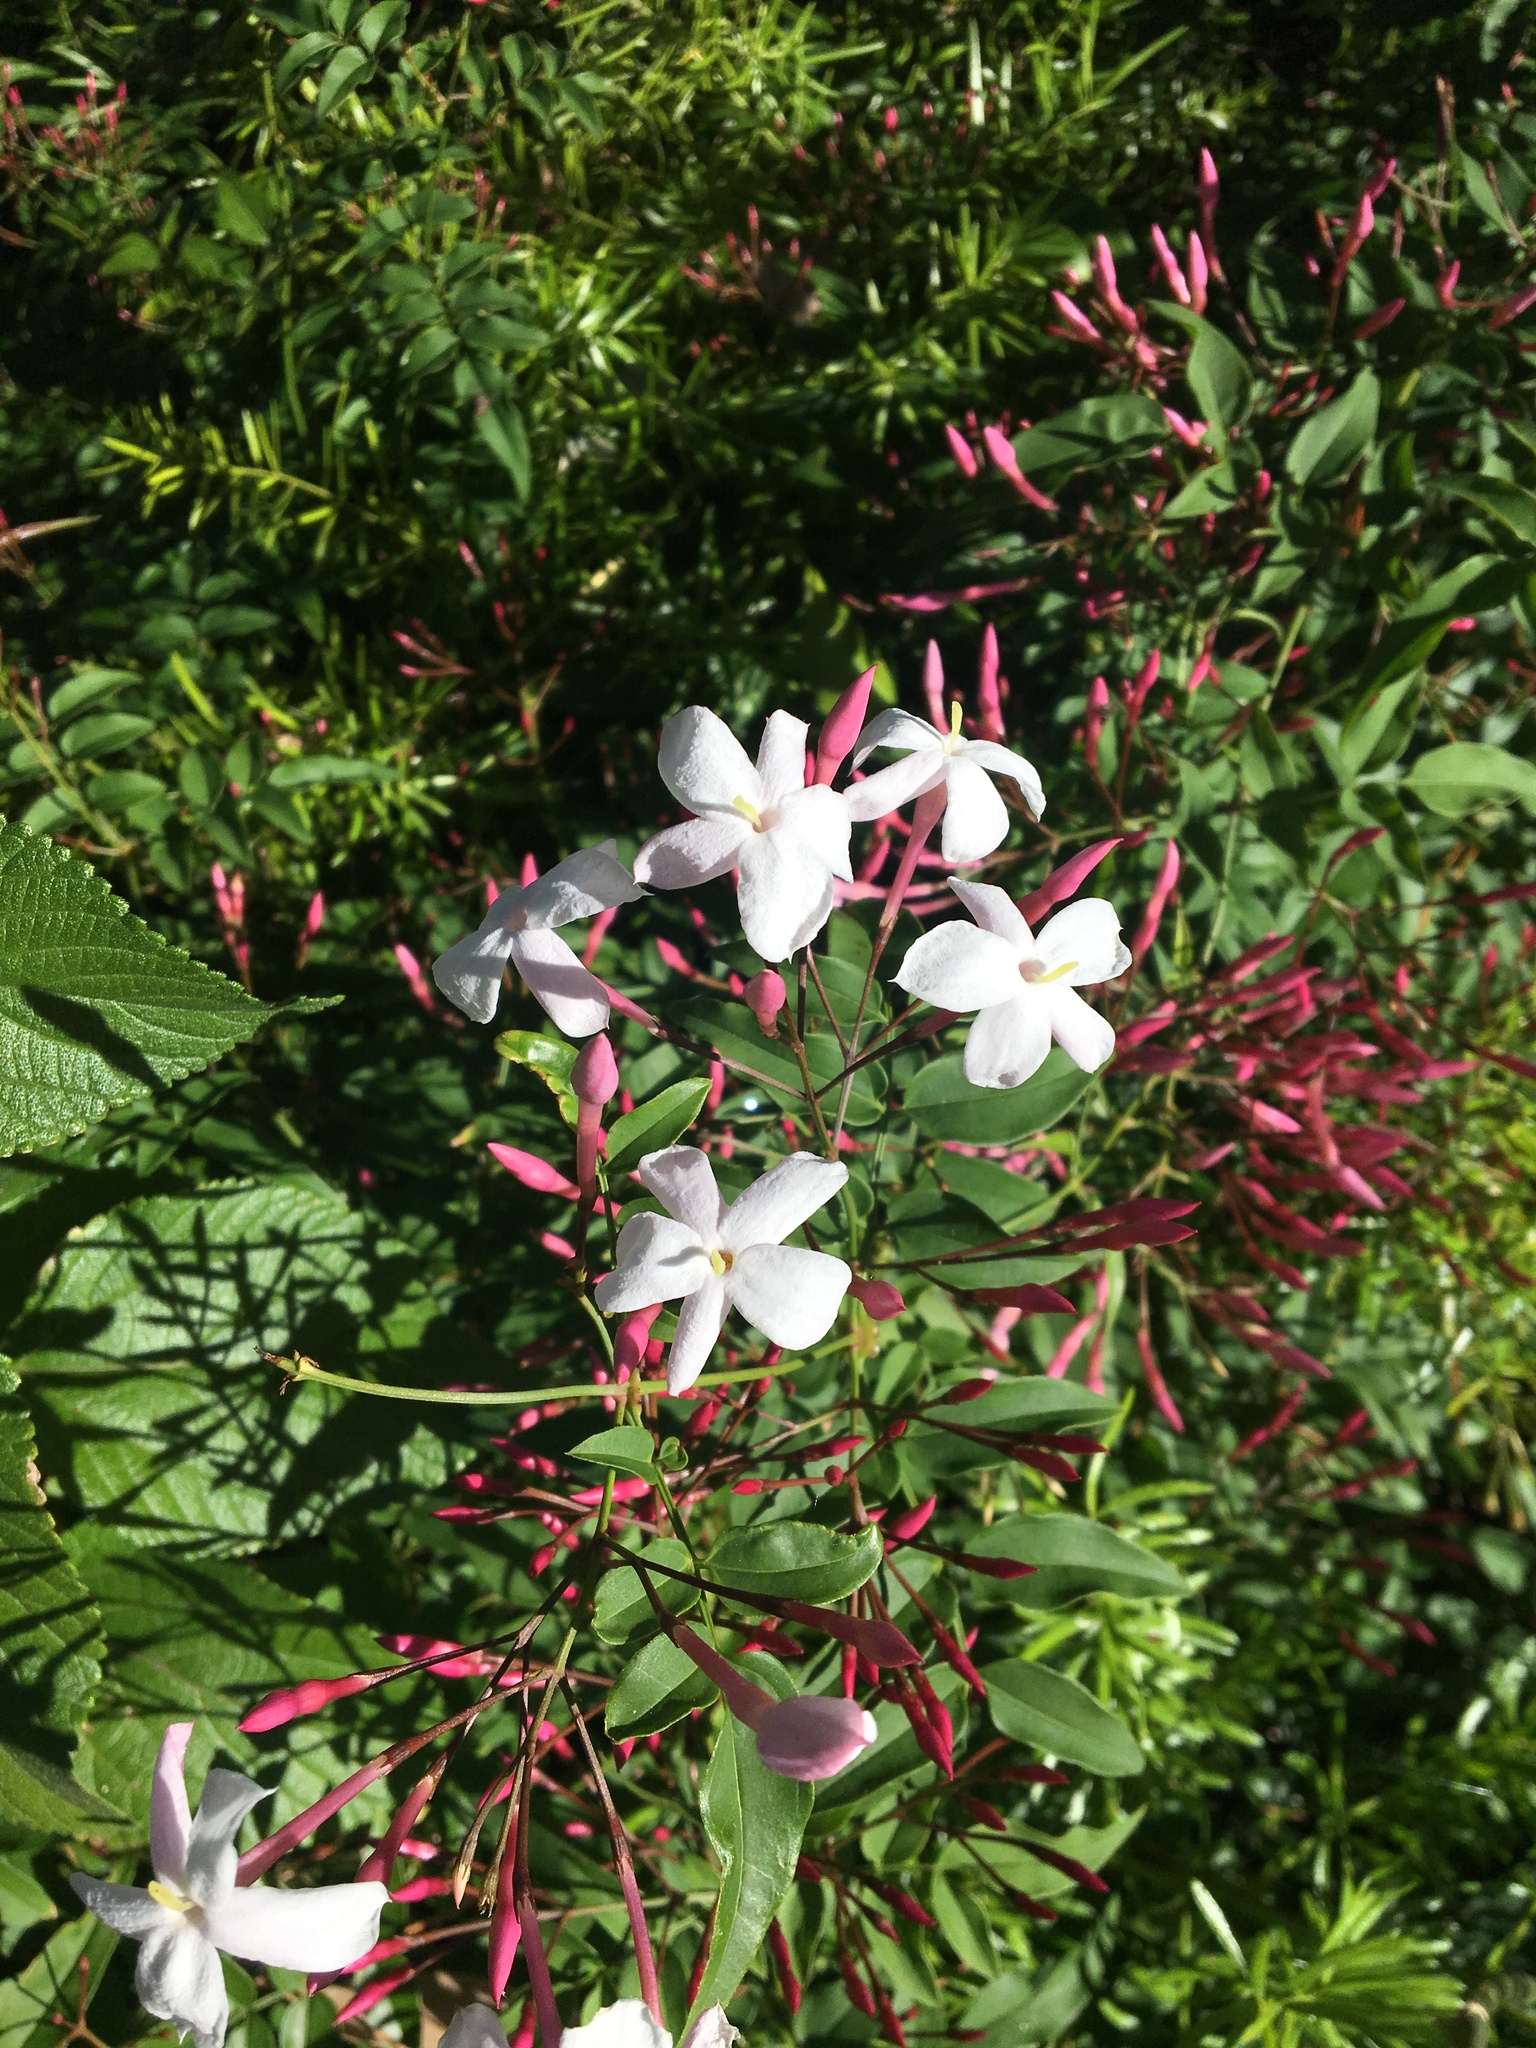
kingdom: Plantae
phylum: Tracheophyta
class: Magnoliopsida
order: Lamiales
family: Oleaceae
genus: Jasminum
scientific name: Jasminum polyanthum
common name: Pink jasmine
